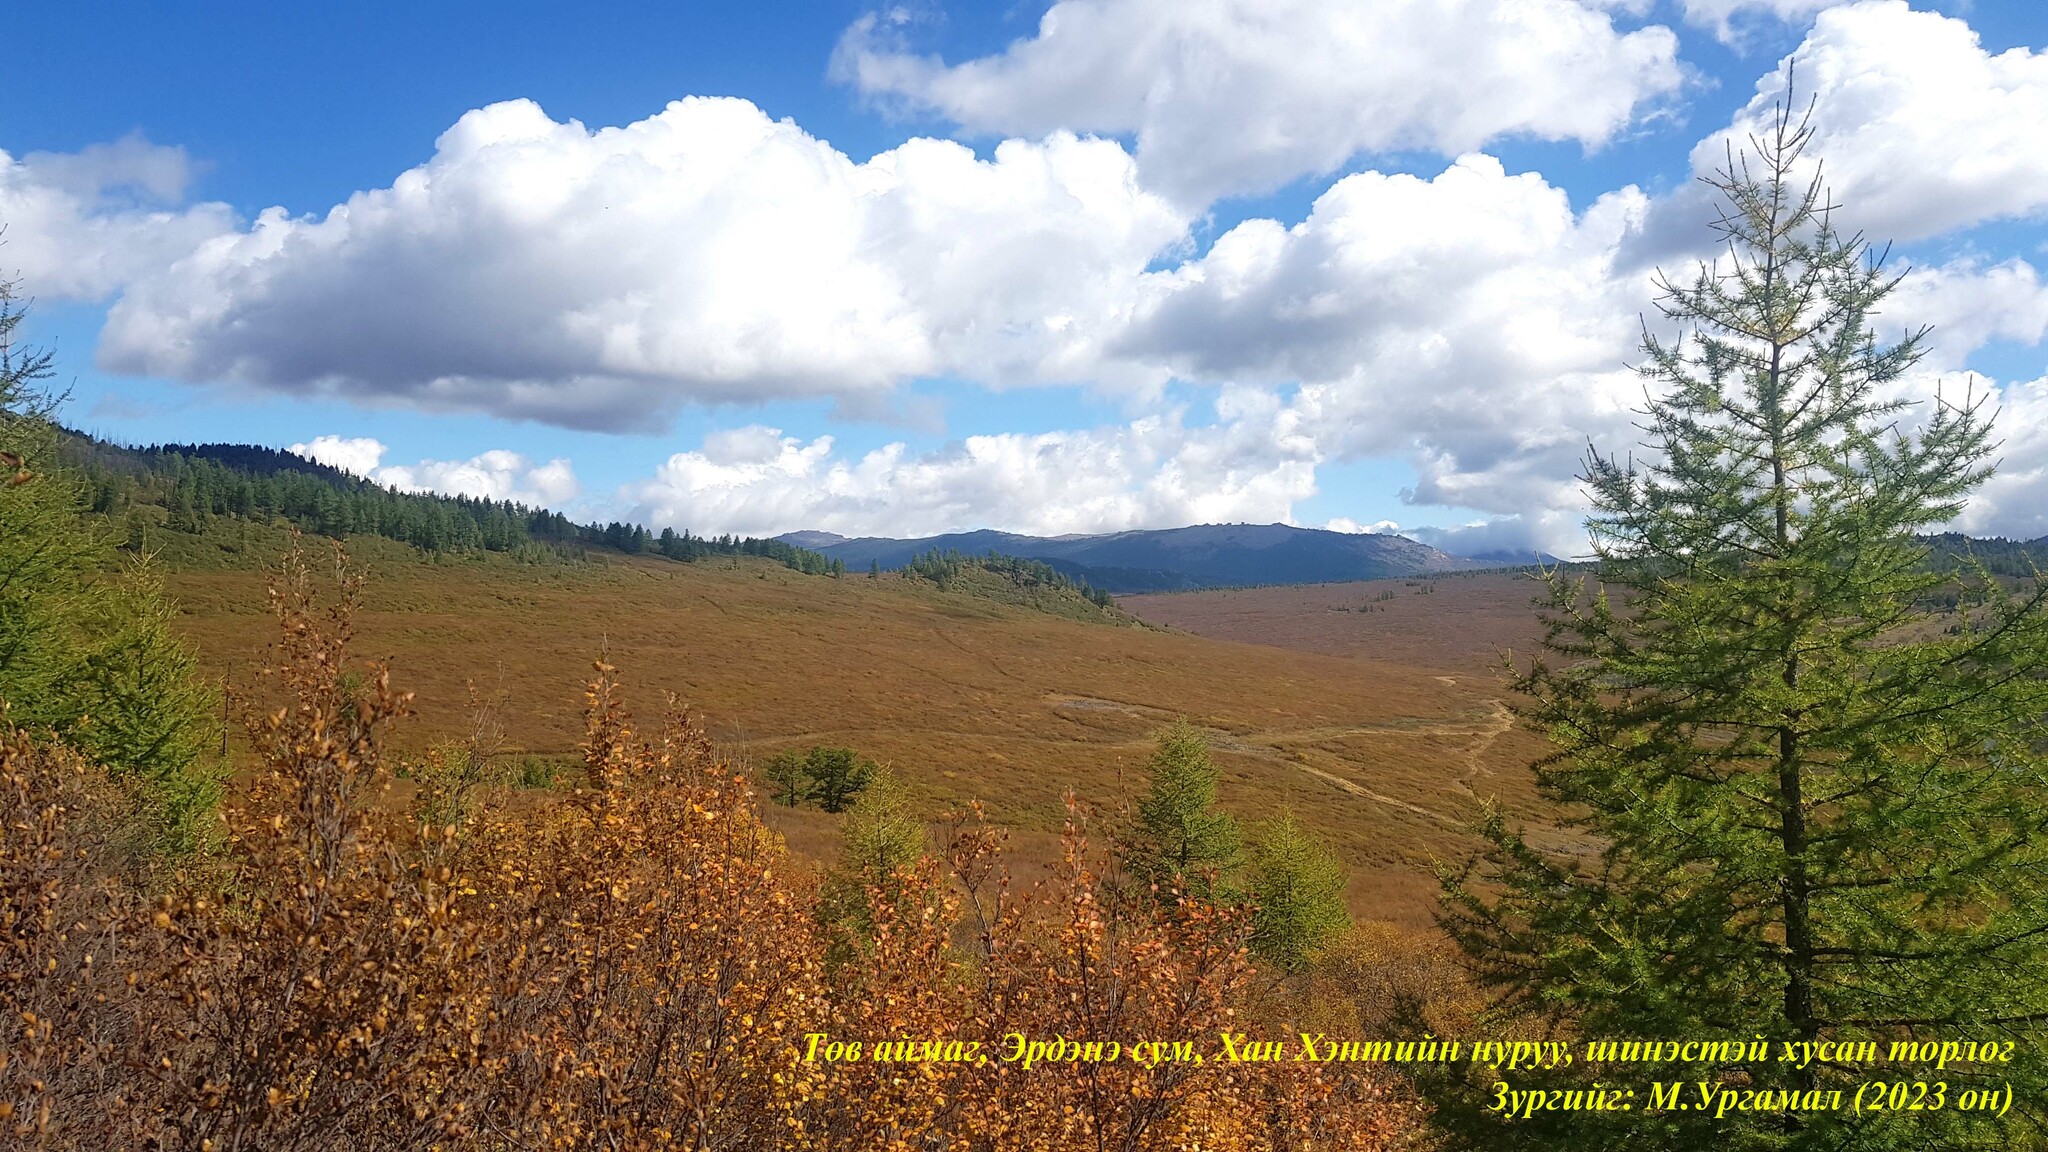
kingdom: Plantae
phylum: Tracheophyta
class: Pinopsida
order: Pinales
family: Pinaceae
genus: Larix
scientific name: Larix sibirica
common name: Siberian larch
